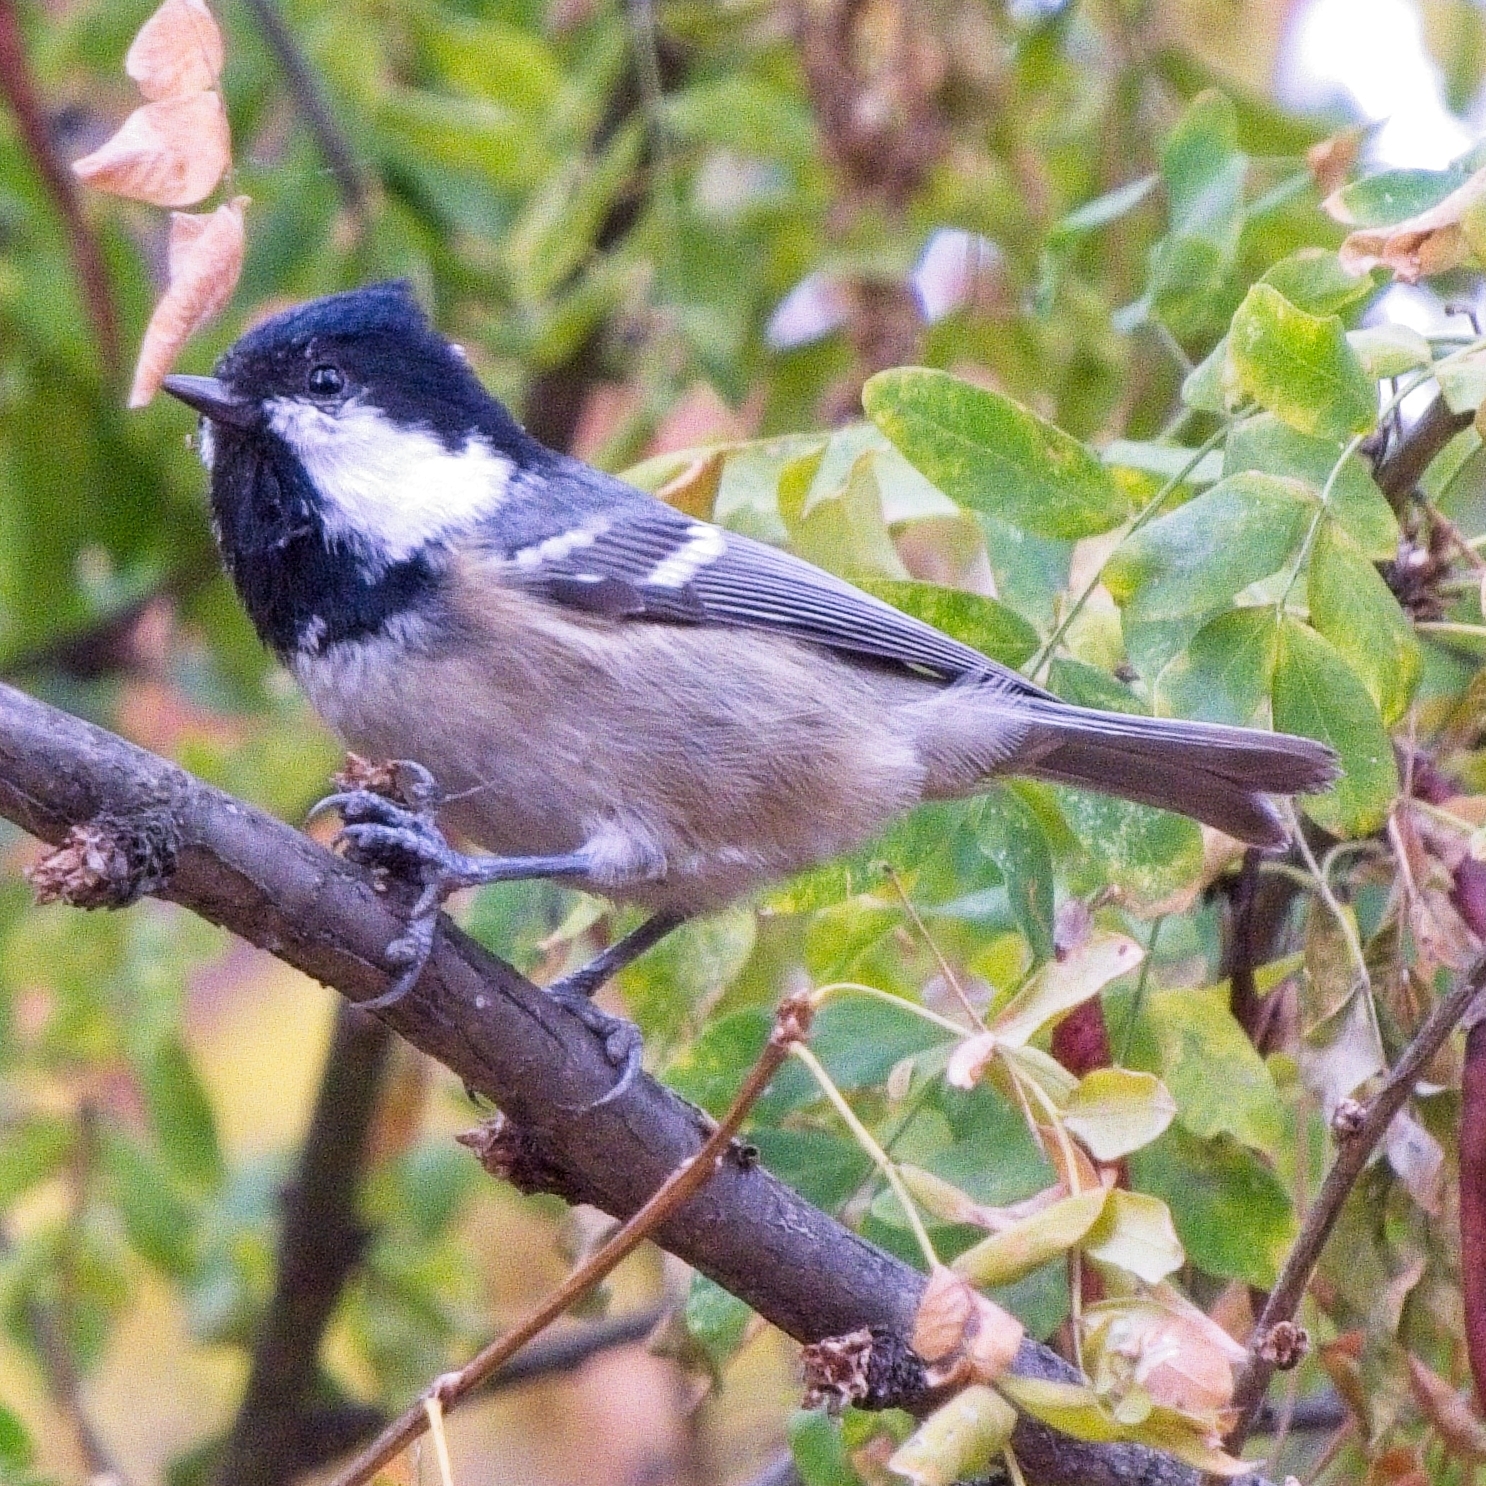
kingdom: Animalia
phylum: Chordata
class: Aves
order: Passeriformes
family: Paridae
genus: Periparus
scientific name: Periparus ater
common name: Coal tit
